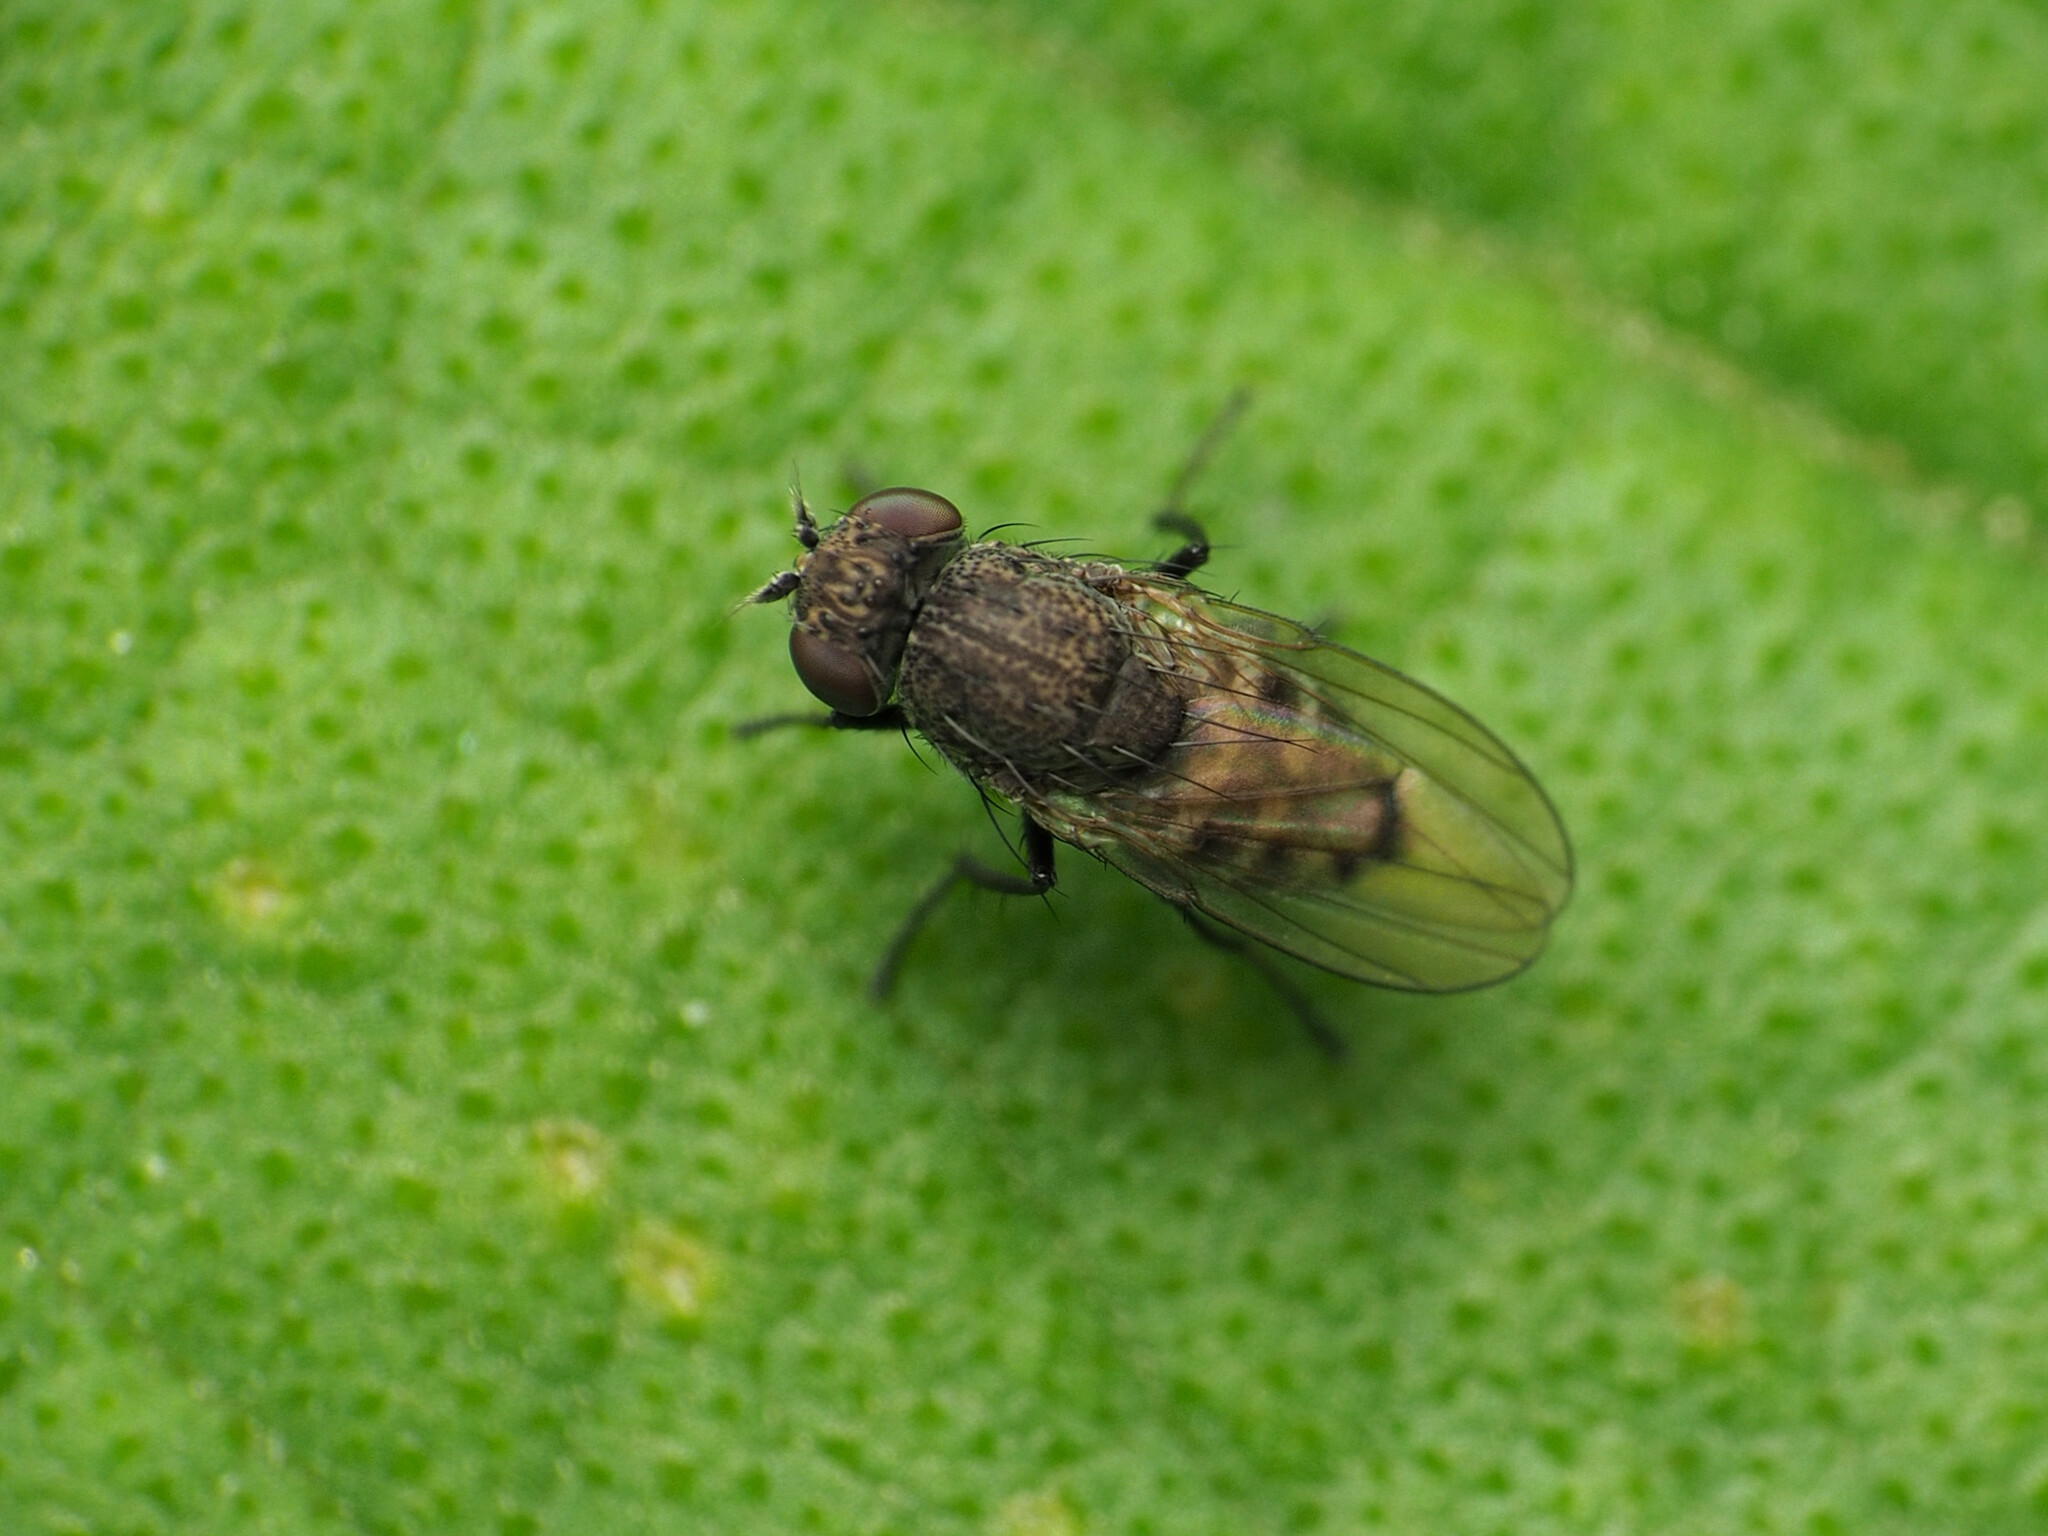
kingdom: Animalia
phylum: Arthropoda
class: Insecta
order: Diptera
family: Ephydridae
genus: Paralimna
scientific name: Paralimna punctipennis
